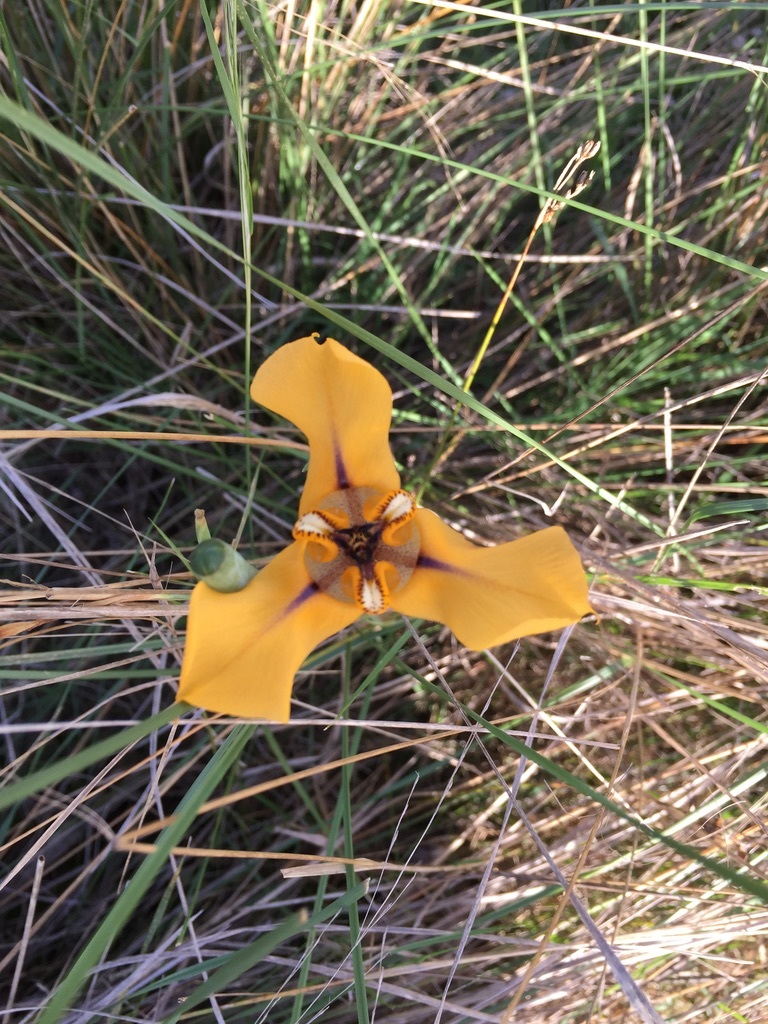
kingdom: Plantae
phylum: Tracheophyta
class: Liliopsida
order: Asparagales
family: Iridaceae
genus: Cypella
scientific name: Cypella herbertii
